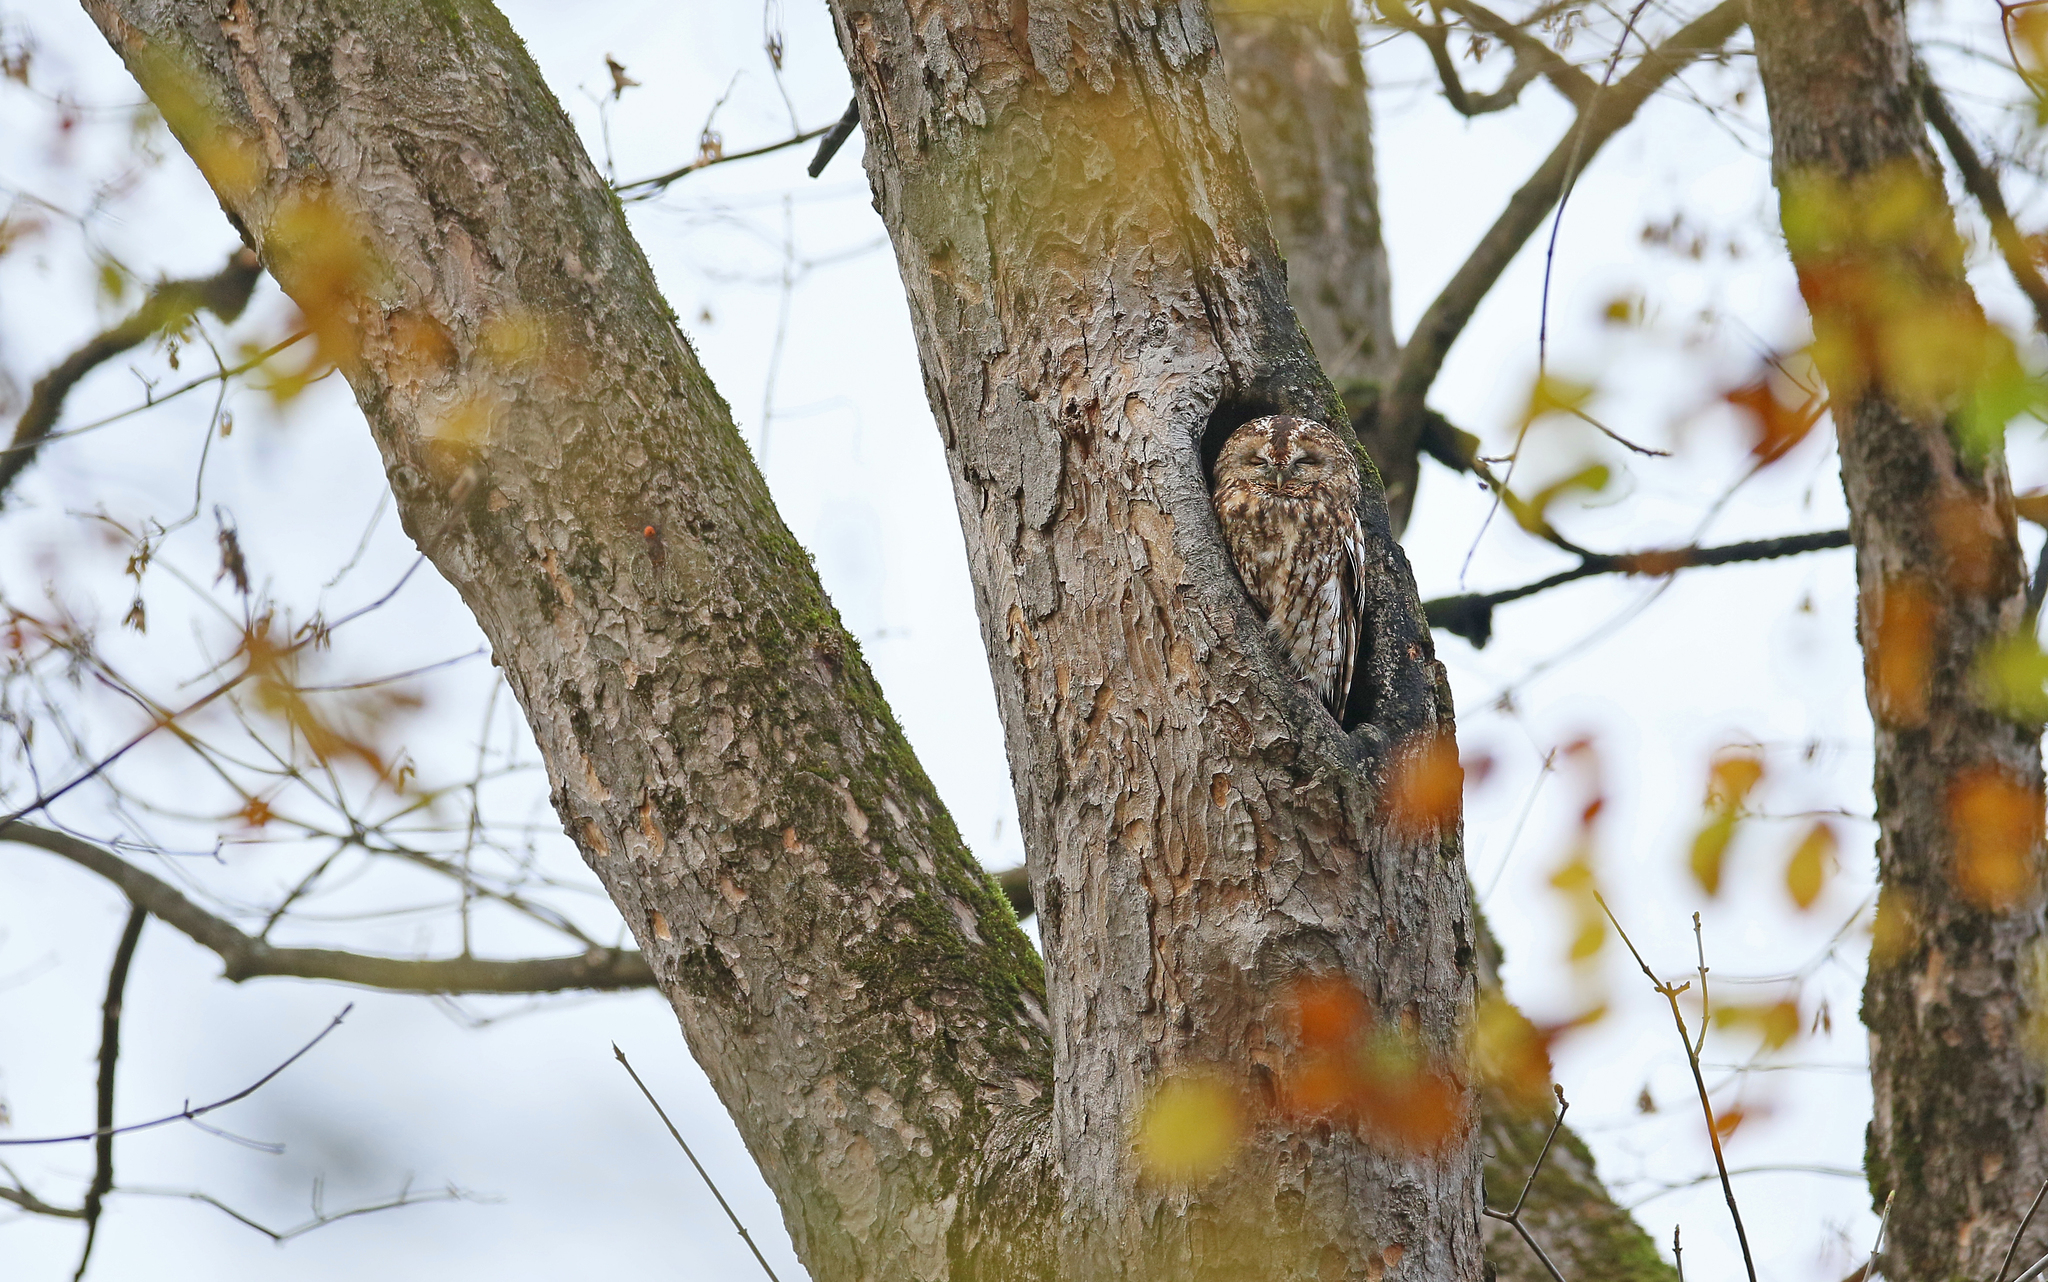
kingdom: Animalia
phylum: Chordata
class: Aves
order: Strigiformes
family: Strigidae
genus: Strix
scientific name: Strix aluco
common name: Tawny owl
